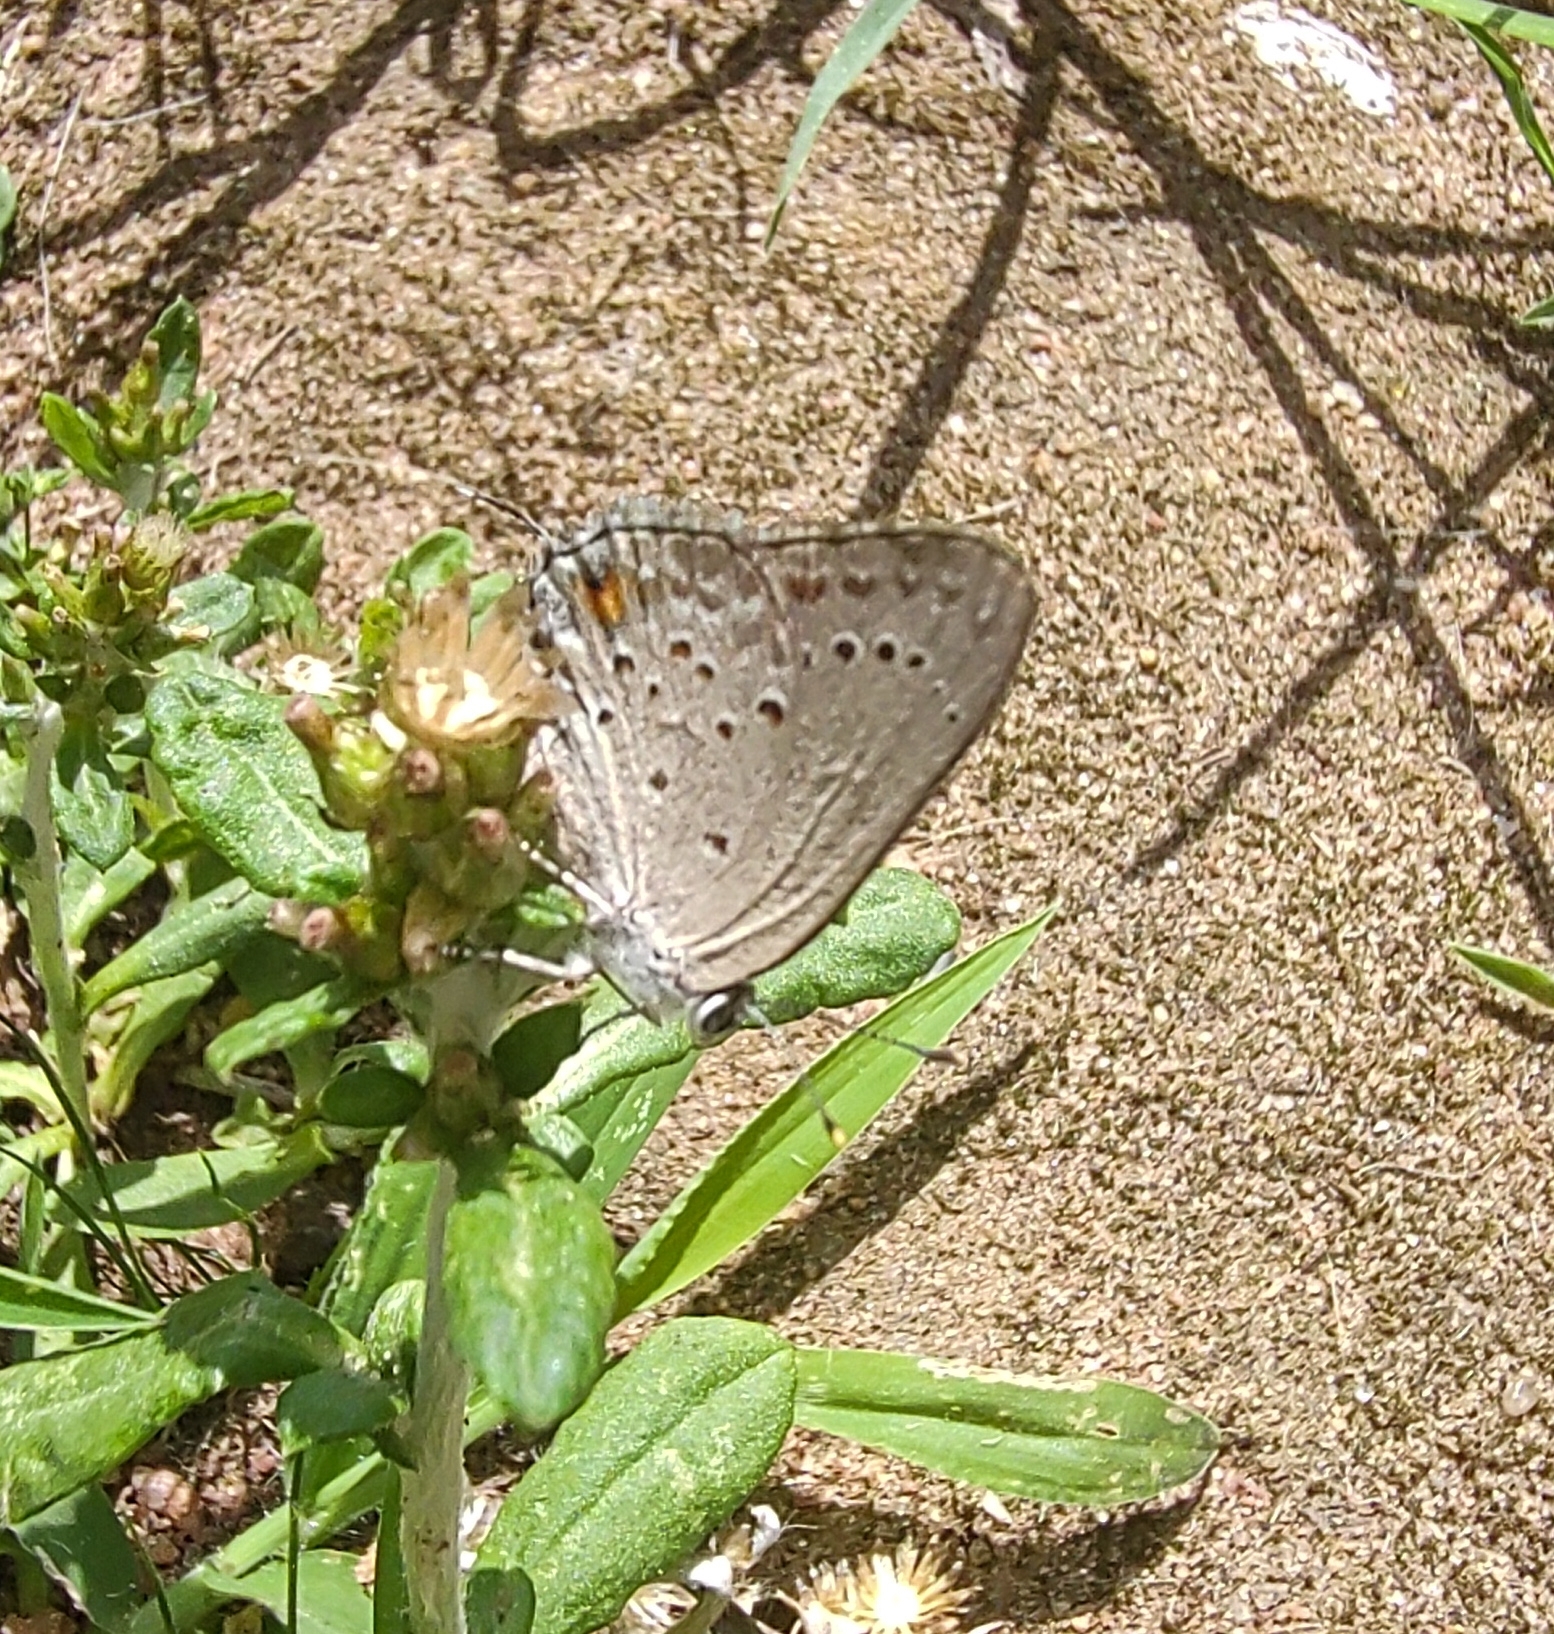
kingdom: Animalia
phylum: Arthropoda
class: Insecta
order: Lepidoptera
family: Lycaenidae
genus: Strymon
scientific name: Strymon eurytulus
